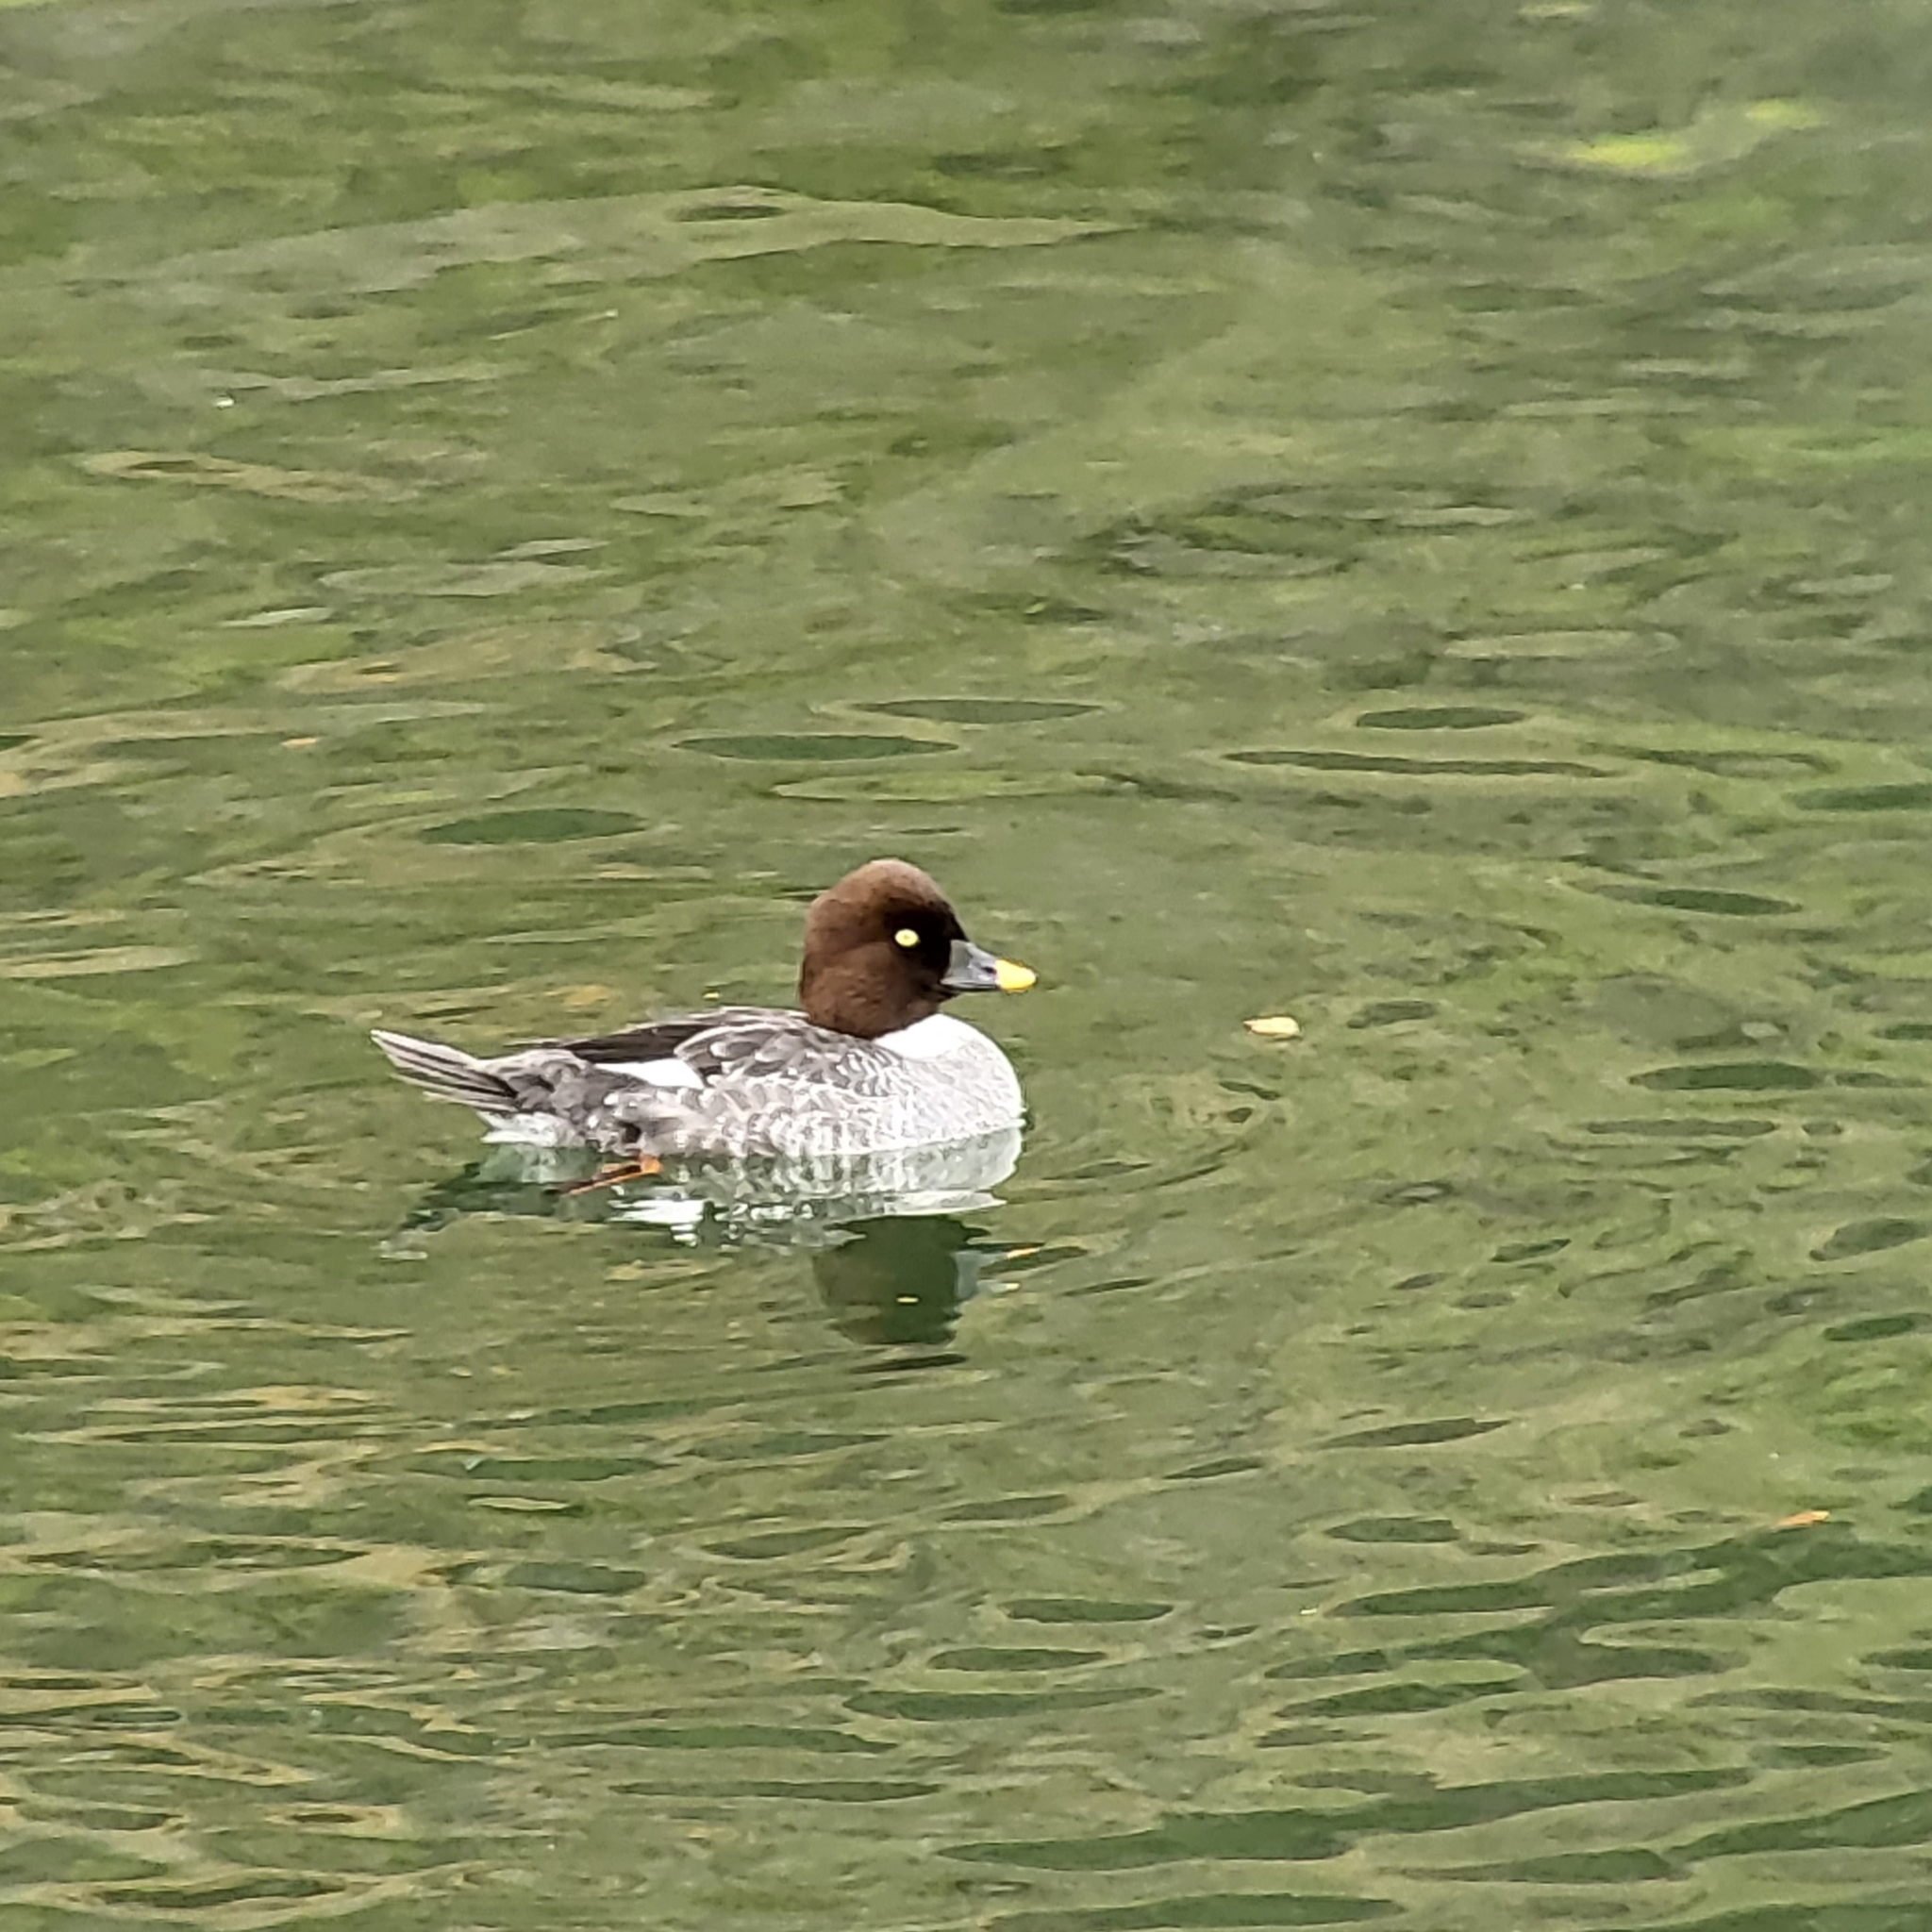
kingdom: Animalia
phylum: Chordata
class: Aves
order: Anseriformes
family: Anatidae
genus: Bucephala
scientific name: Bucephala clangula
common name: Common goldeneye
